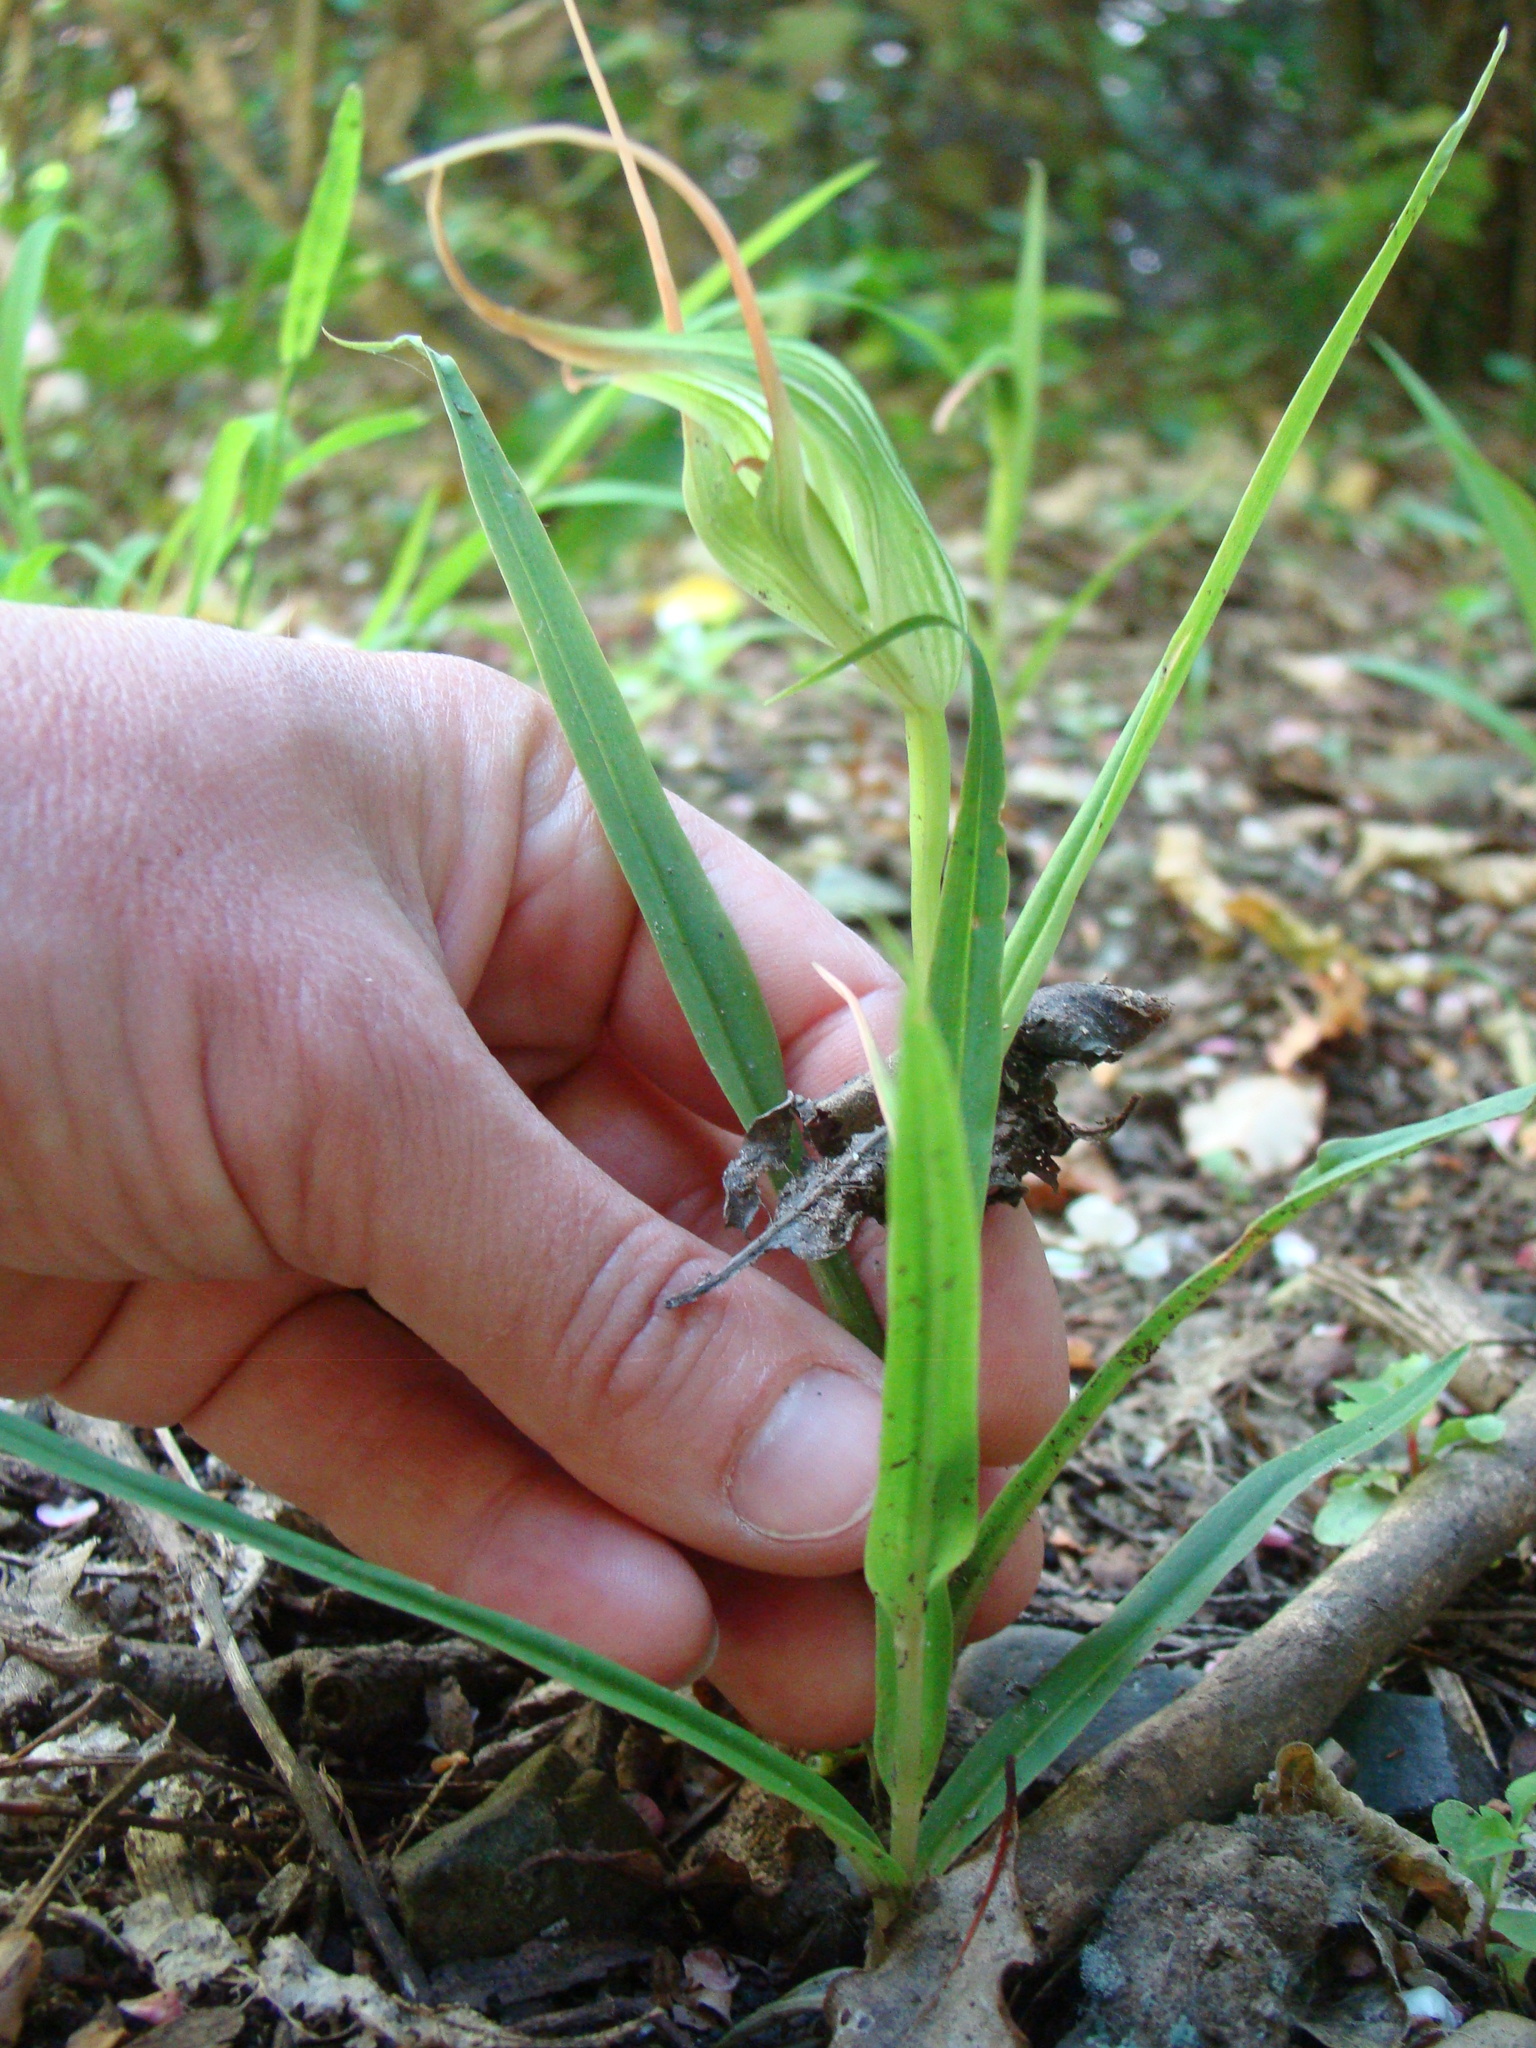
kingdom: Plantae
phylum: Tracheophyta
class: Liliopsida
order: Asparagales
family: Orchidaceae
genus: Pterostylis
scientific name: Pterostylis banksii
